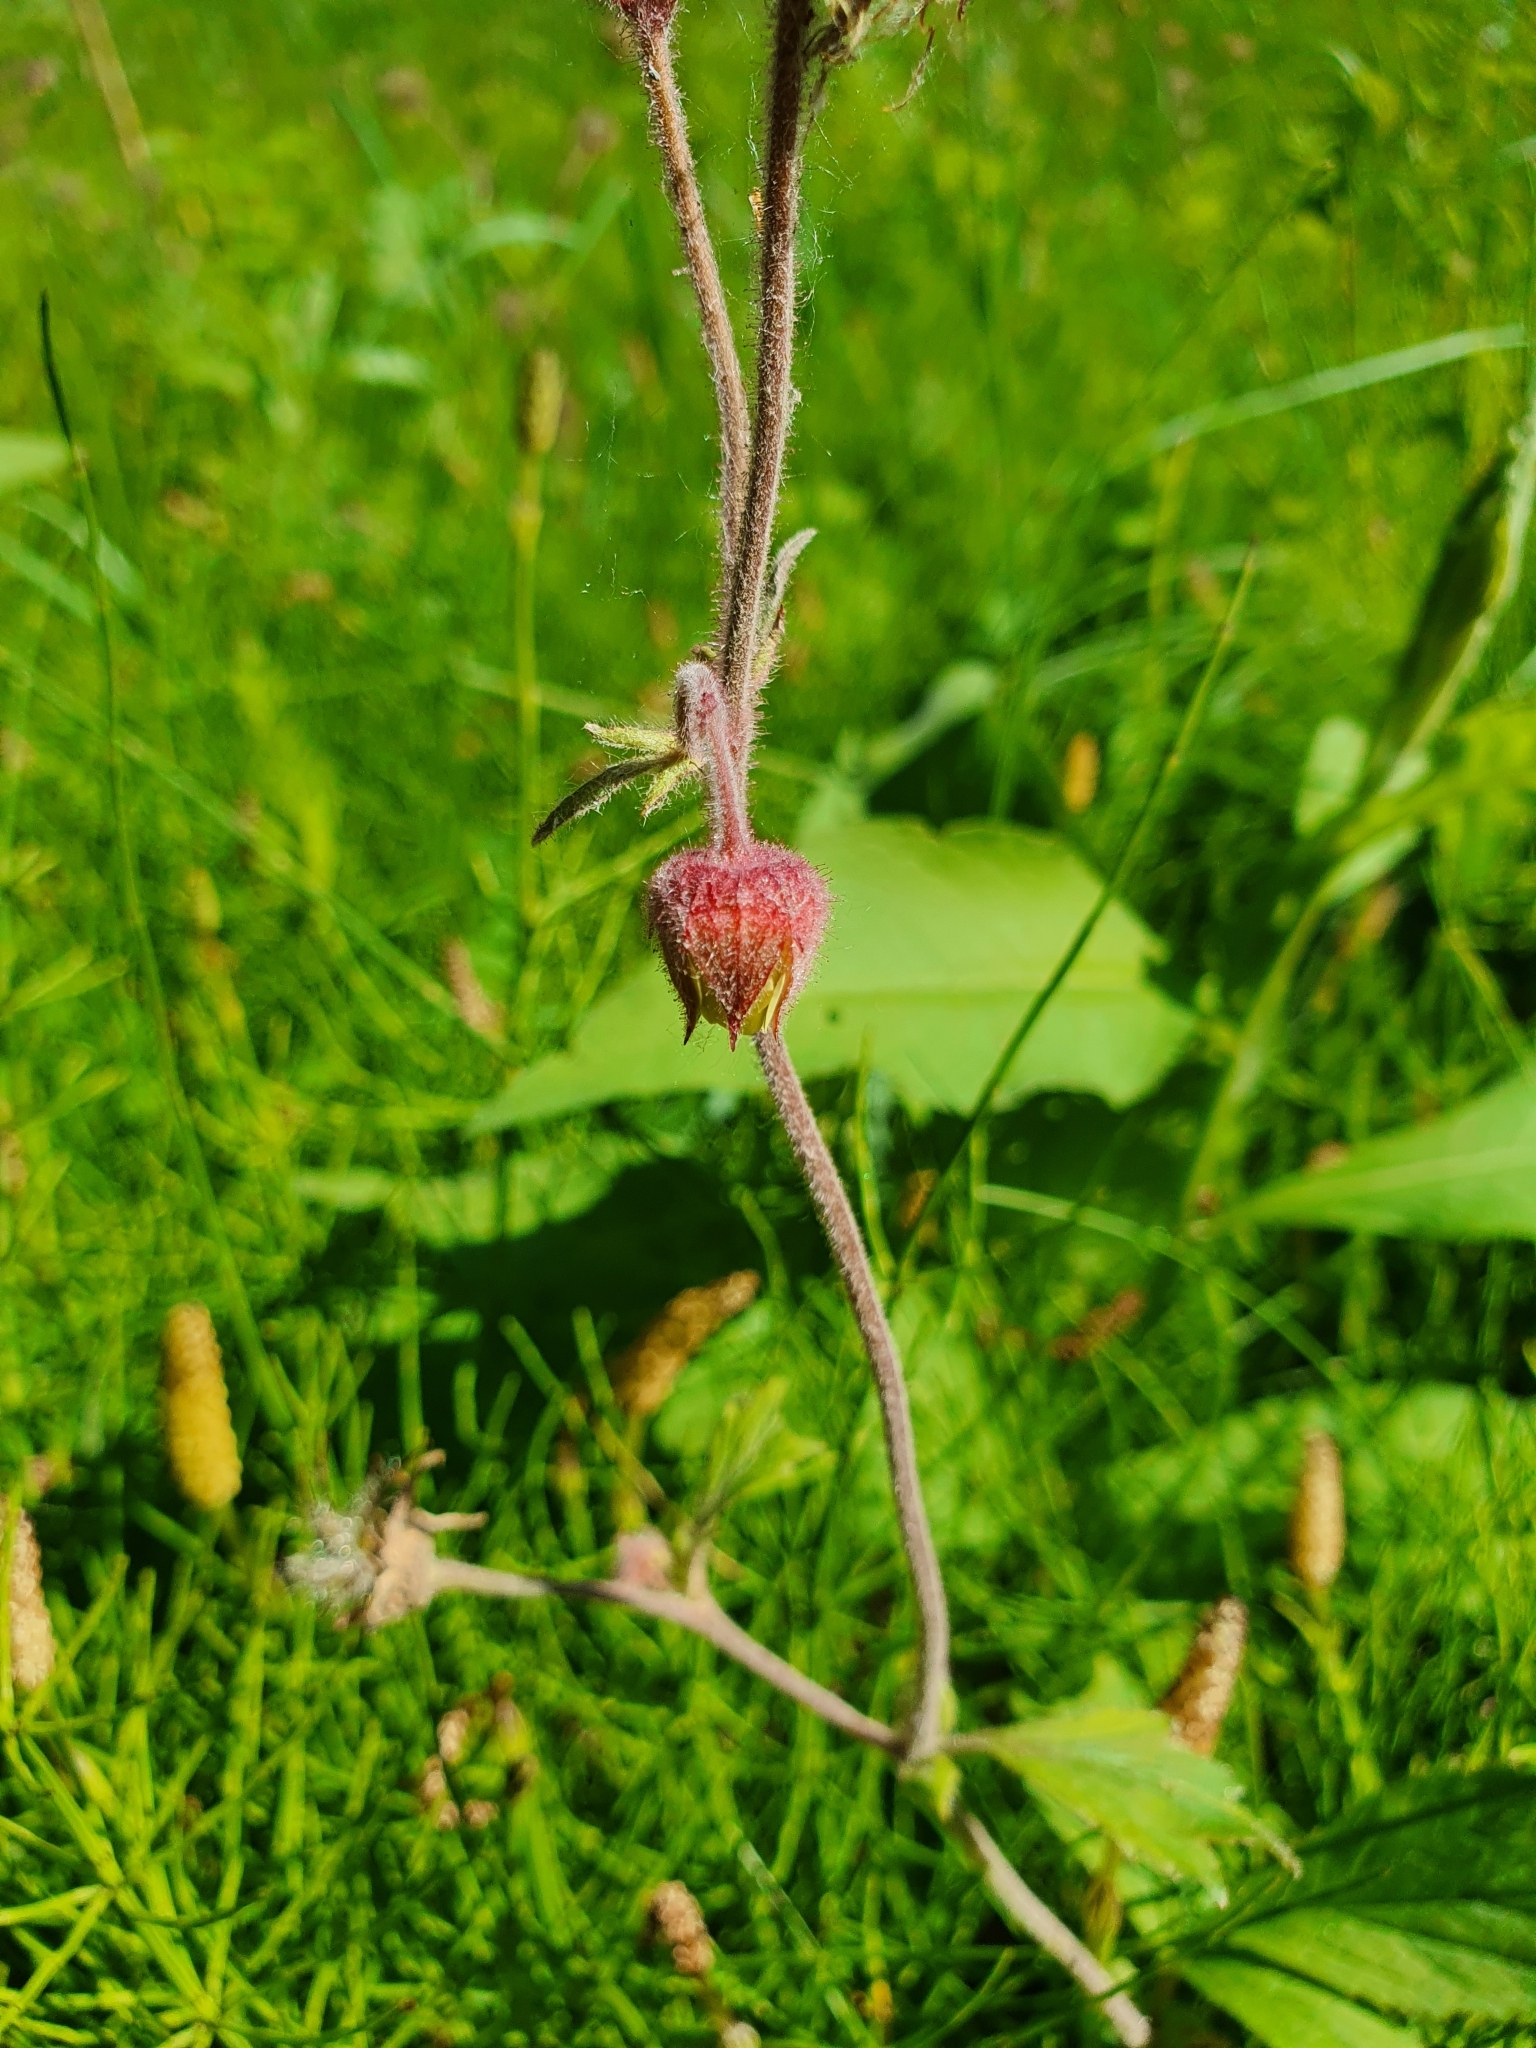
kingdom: Plantae
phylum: Tracheophyta
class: Magnoliopsida
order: Rosales
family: Rosaceae
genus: Geum
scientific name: Geum rivale
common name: Water avens
